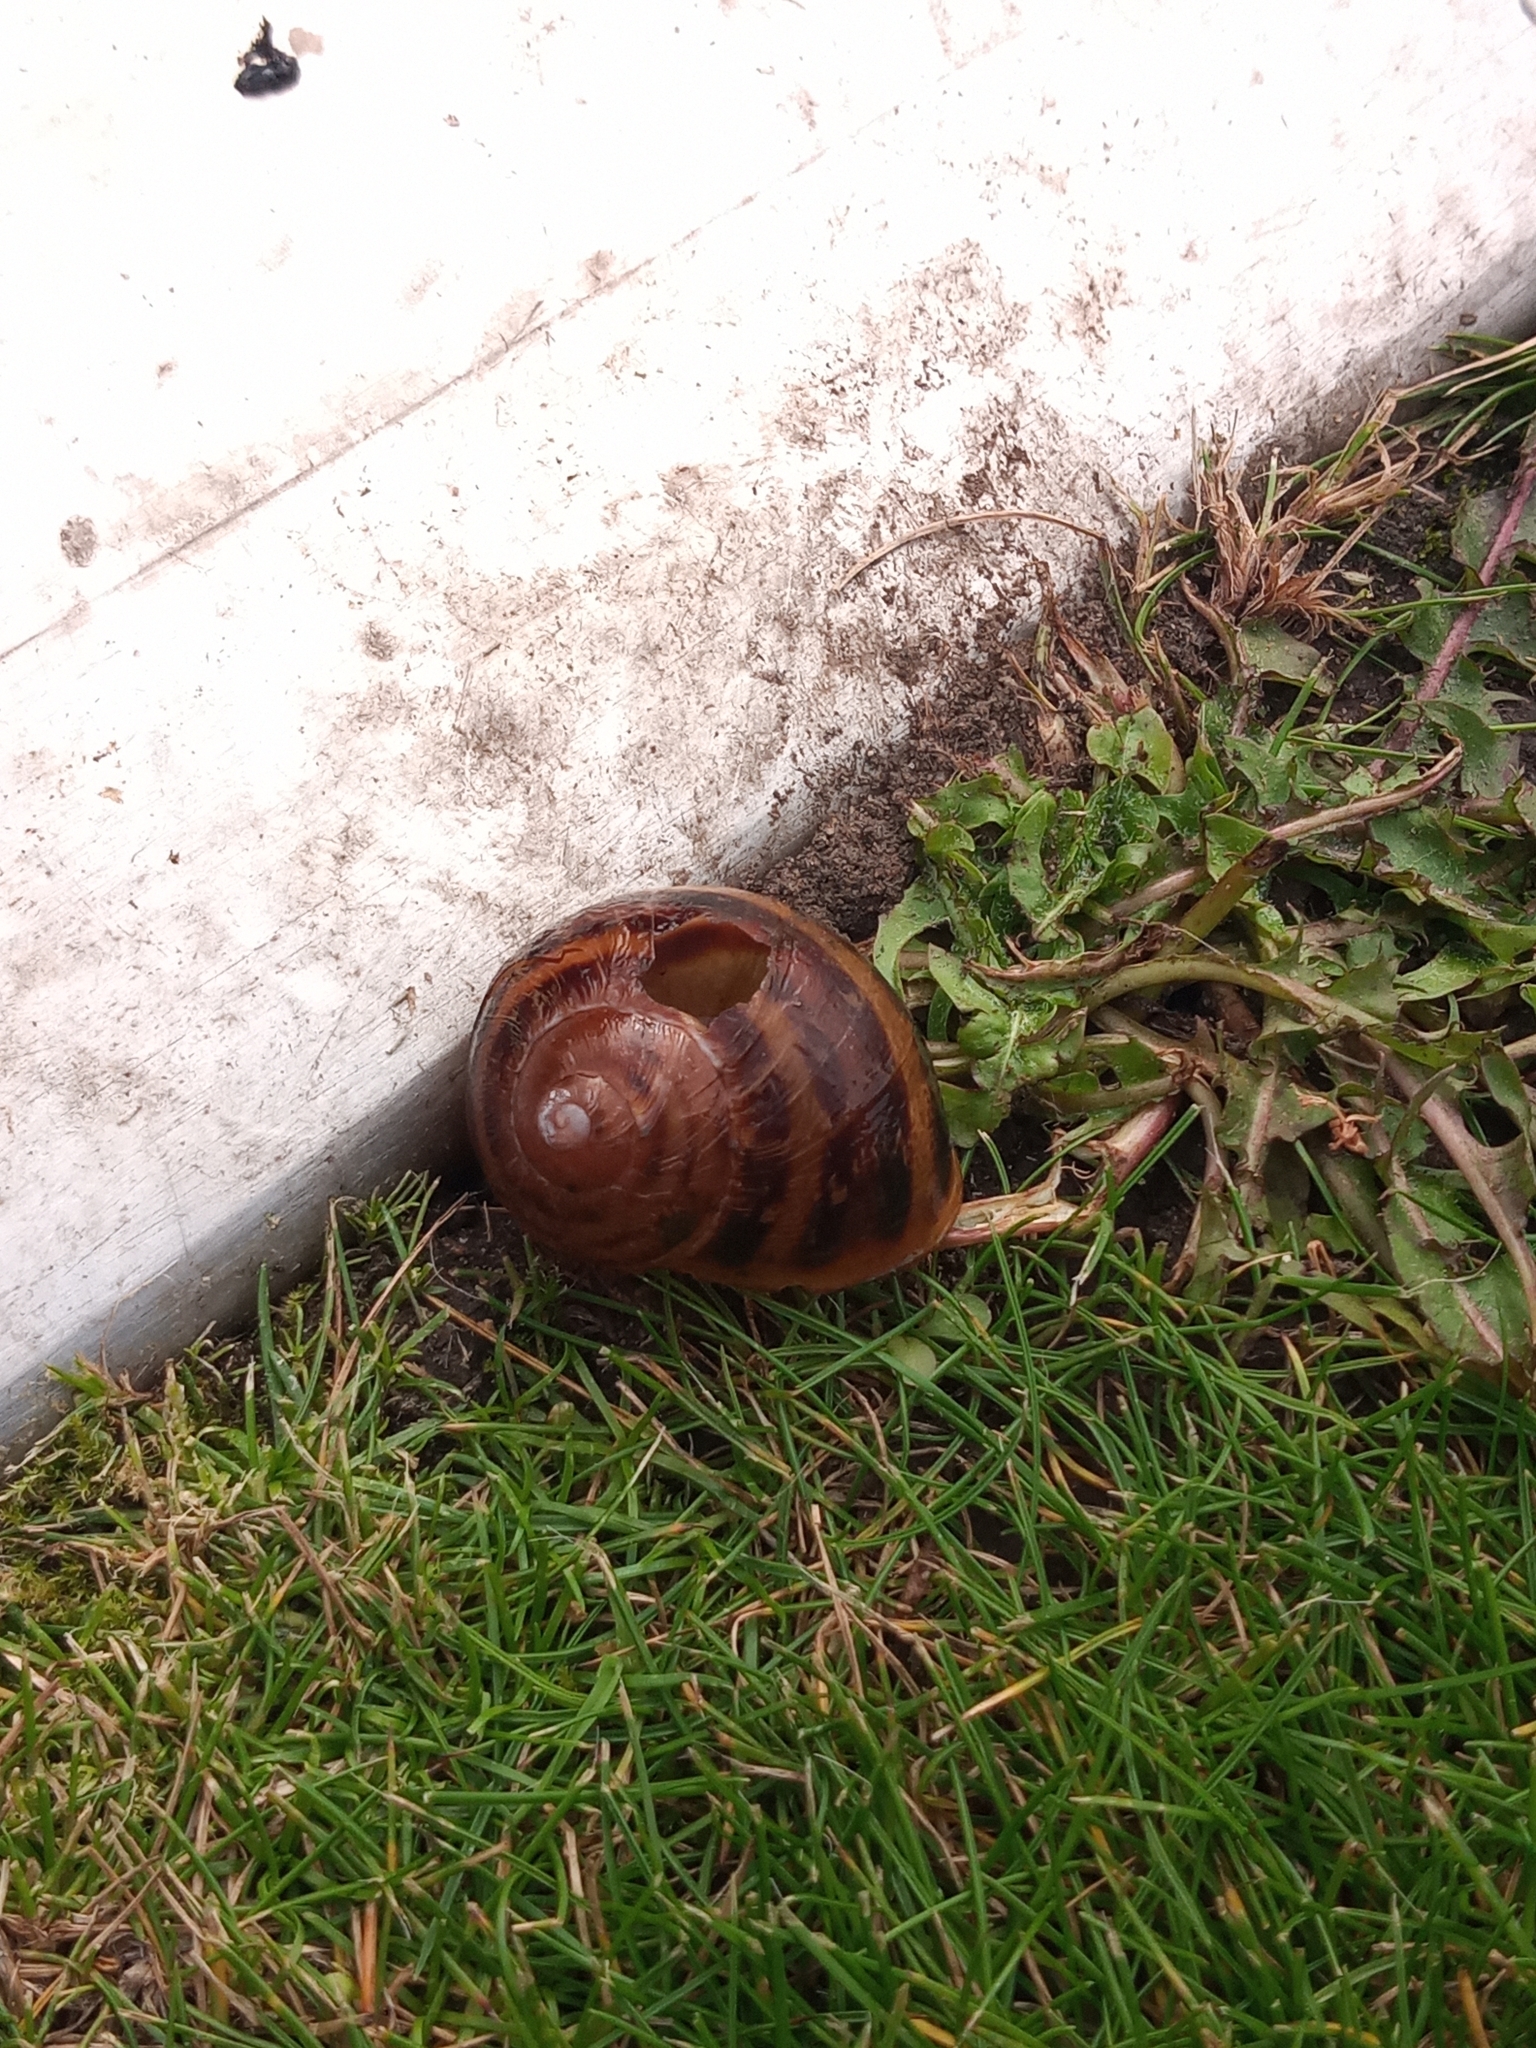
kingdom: Animalia
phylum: Mollusca
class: Gastropoda
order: Stylommatophora
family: Helicidae
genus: Cornu
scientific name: Cornu aspersum
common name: Brown garden snail
